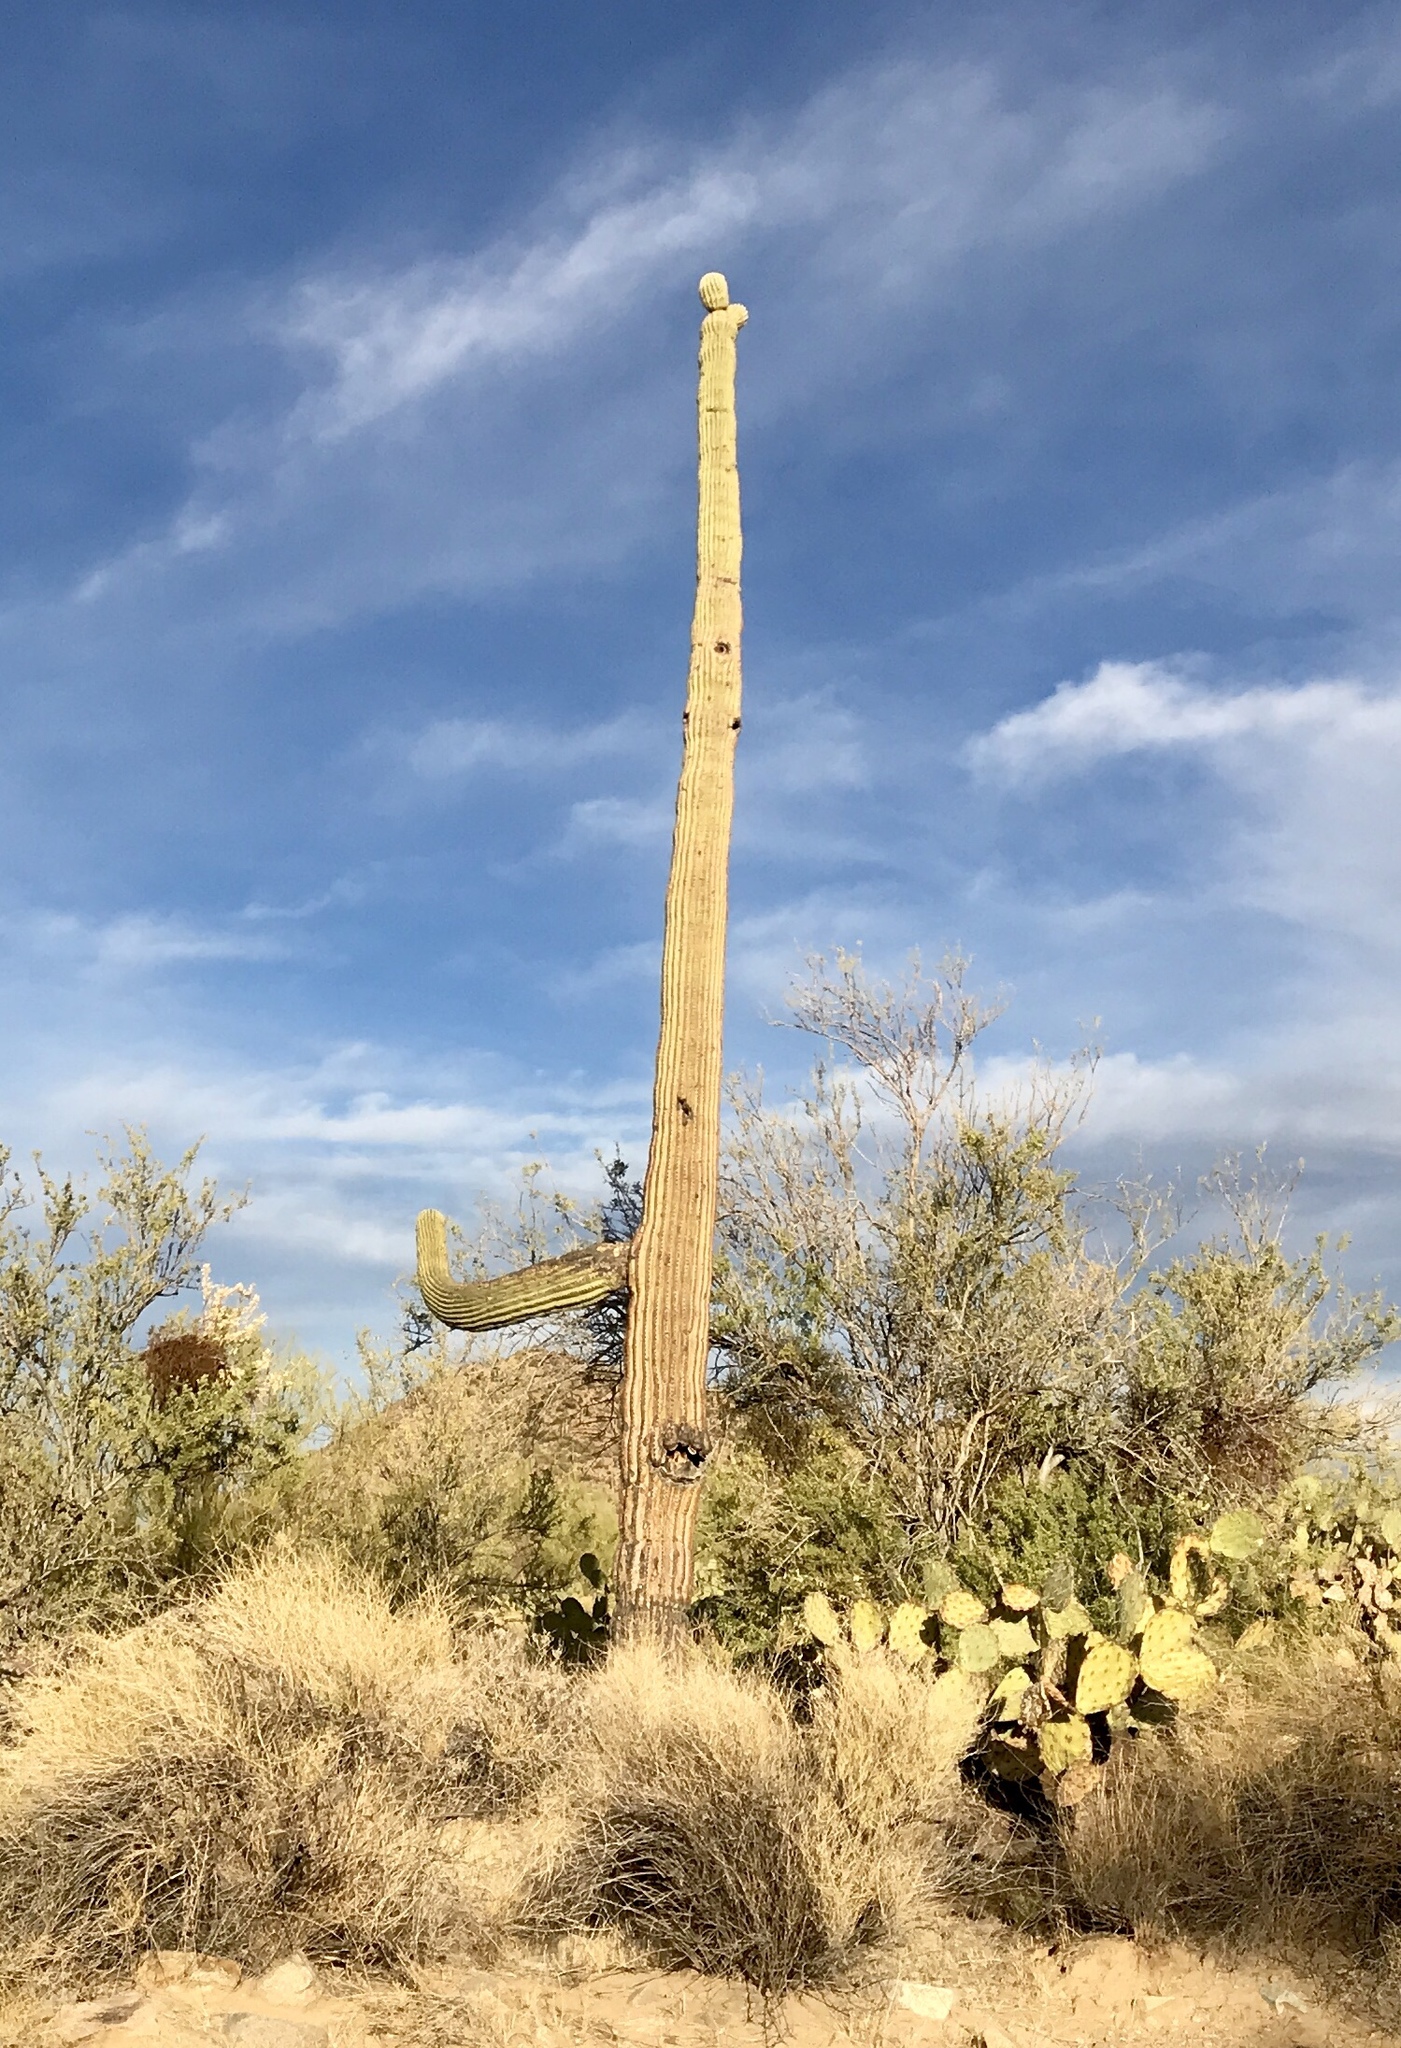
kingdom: Plantae
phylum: Tracheophyta
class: Magnoliopsida
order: Caryophyllales
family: Cactaceae
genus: Carnegiea
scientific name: Carnegiea gigantea
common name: Saguaro
